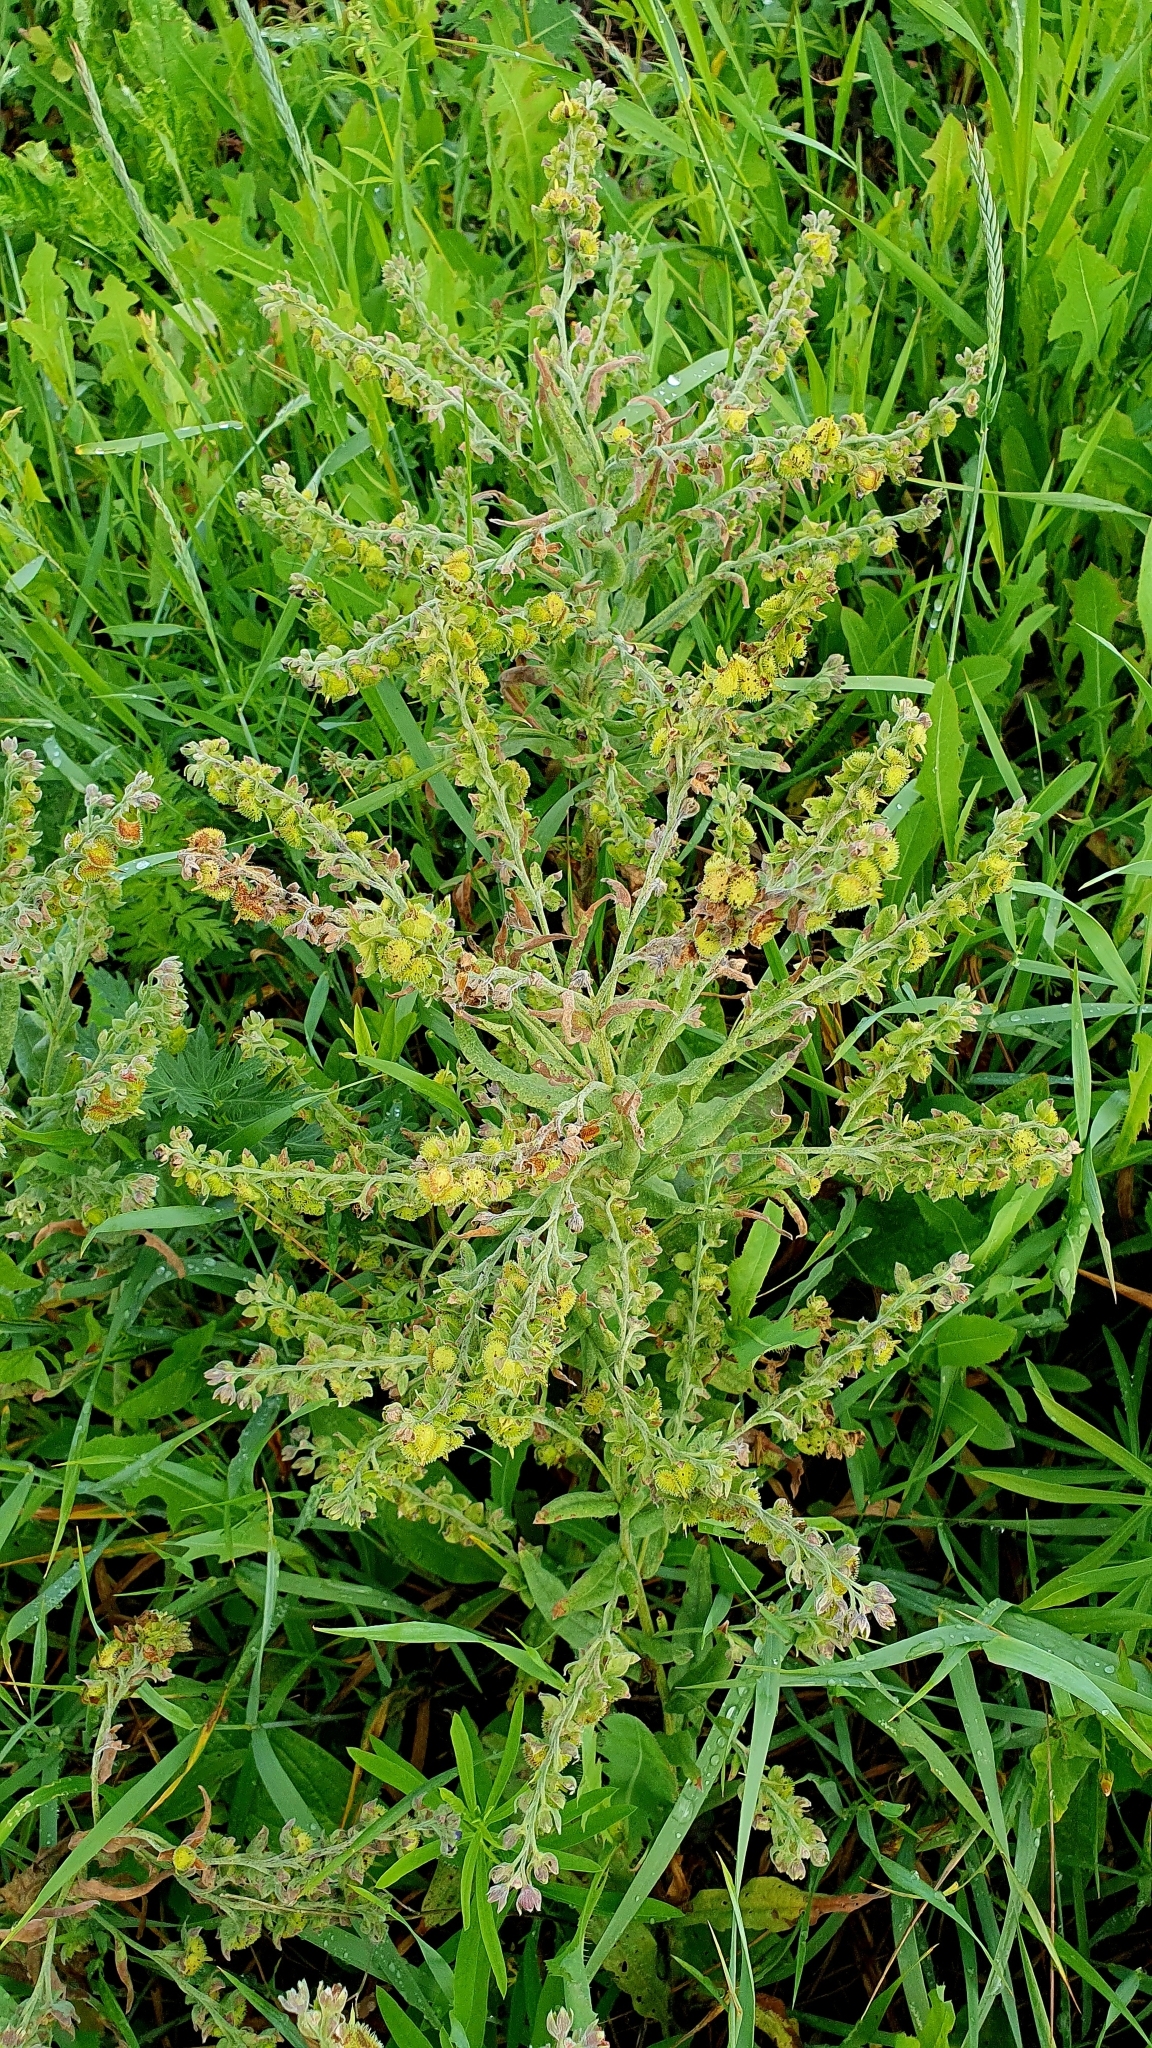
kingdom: Plantae
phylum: Tracheophyta
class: Magnoliopsida
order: Boraginales
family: Boraginaceae
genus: Cynoglossum
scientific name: Cynoglossum officinale
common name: Hound's-tongue
